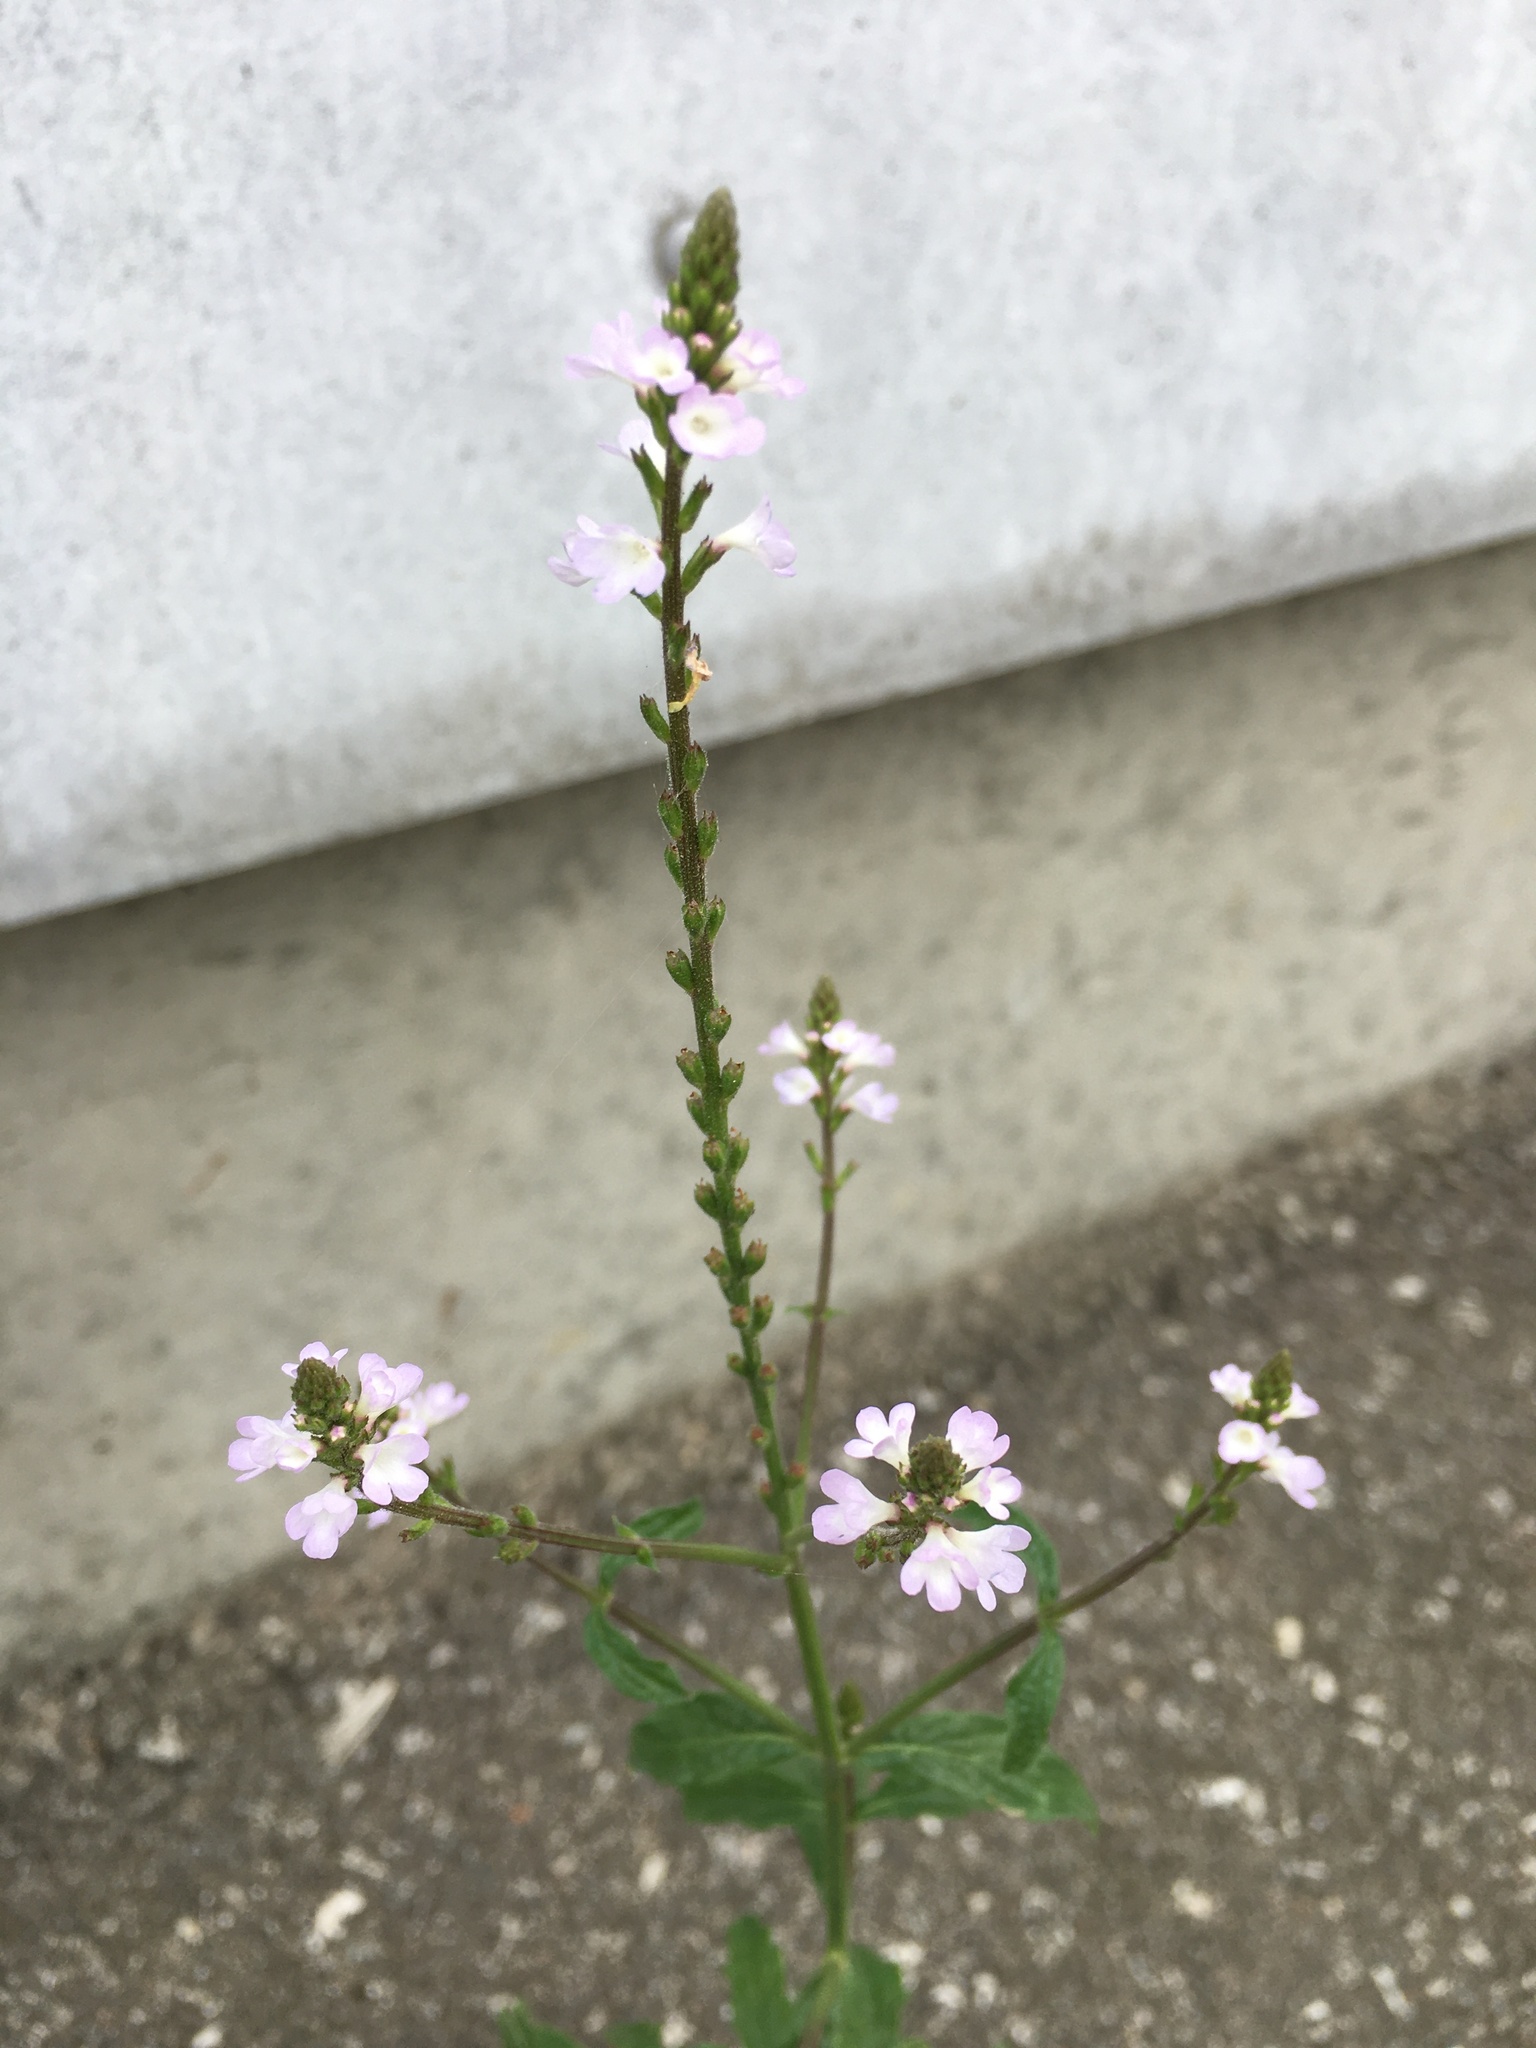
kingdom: Plantae
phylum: Tracheophyta
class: Magnoliopsida
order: Lamiales
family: Verbenaceae
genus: Verbena
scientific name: Verbena officinalis
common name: Vervain
